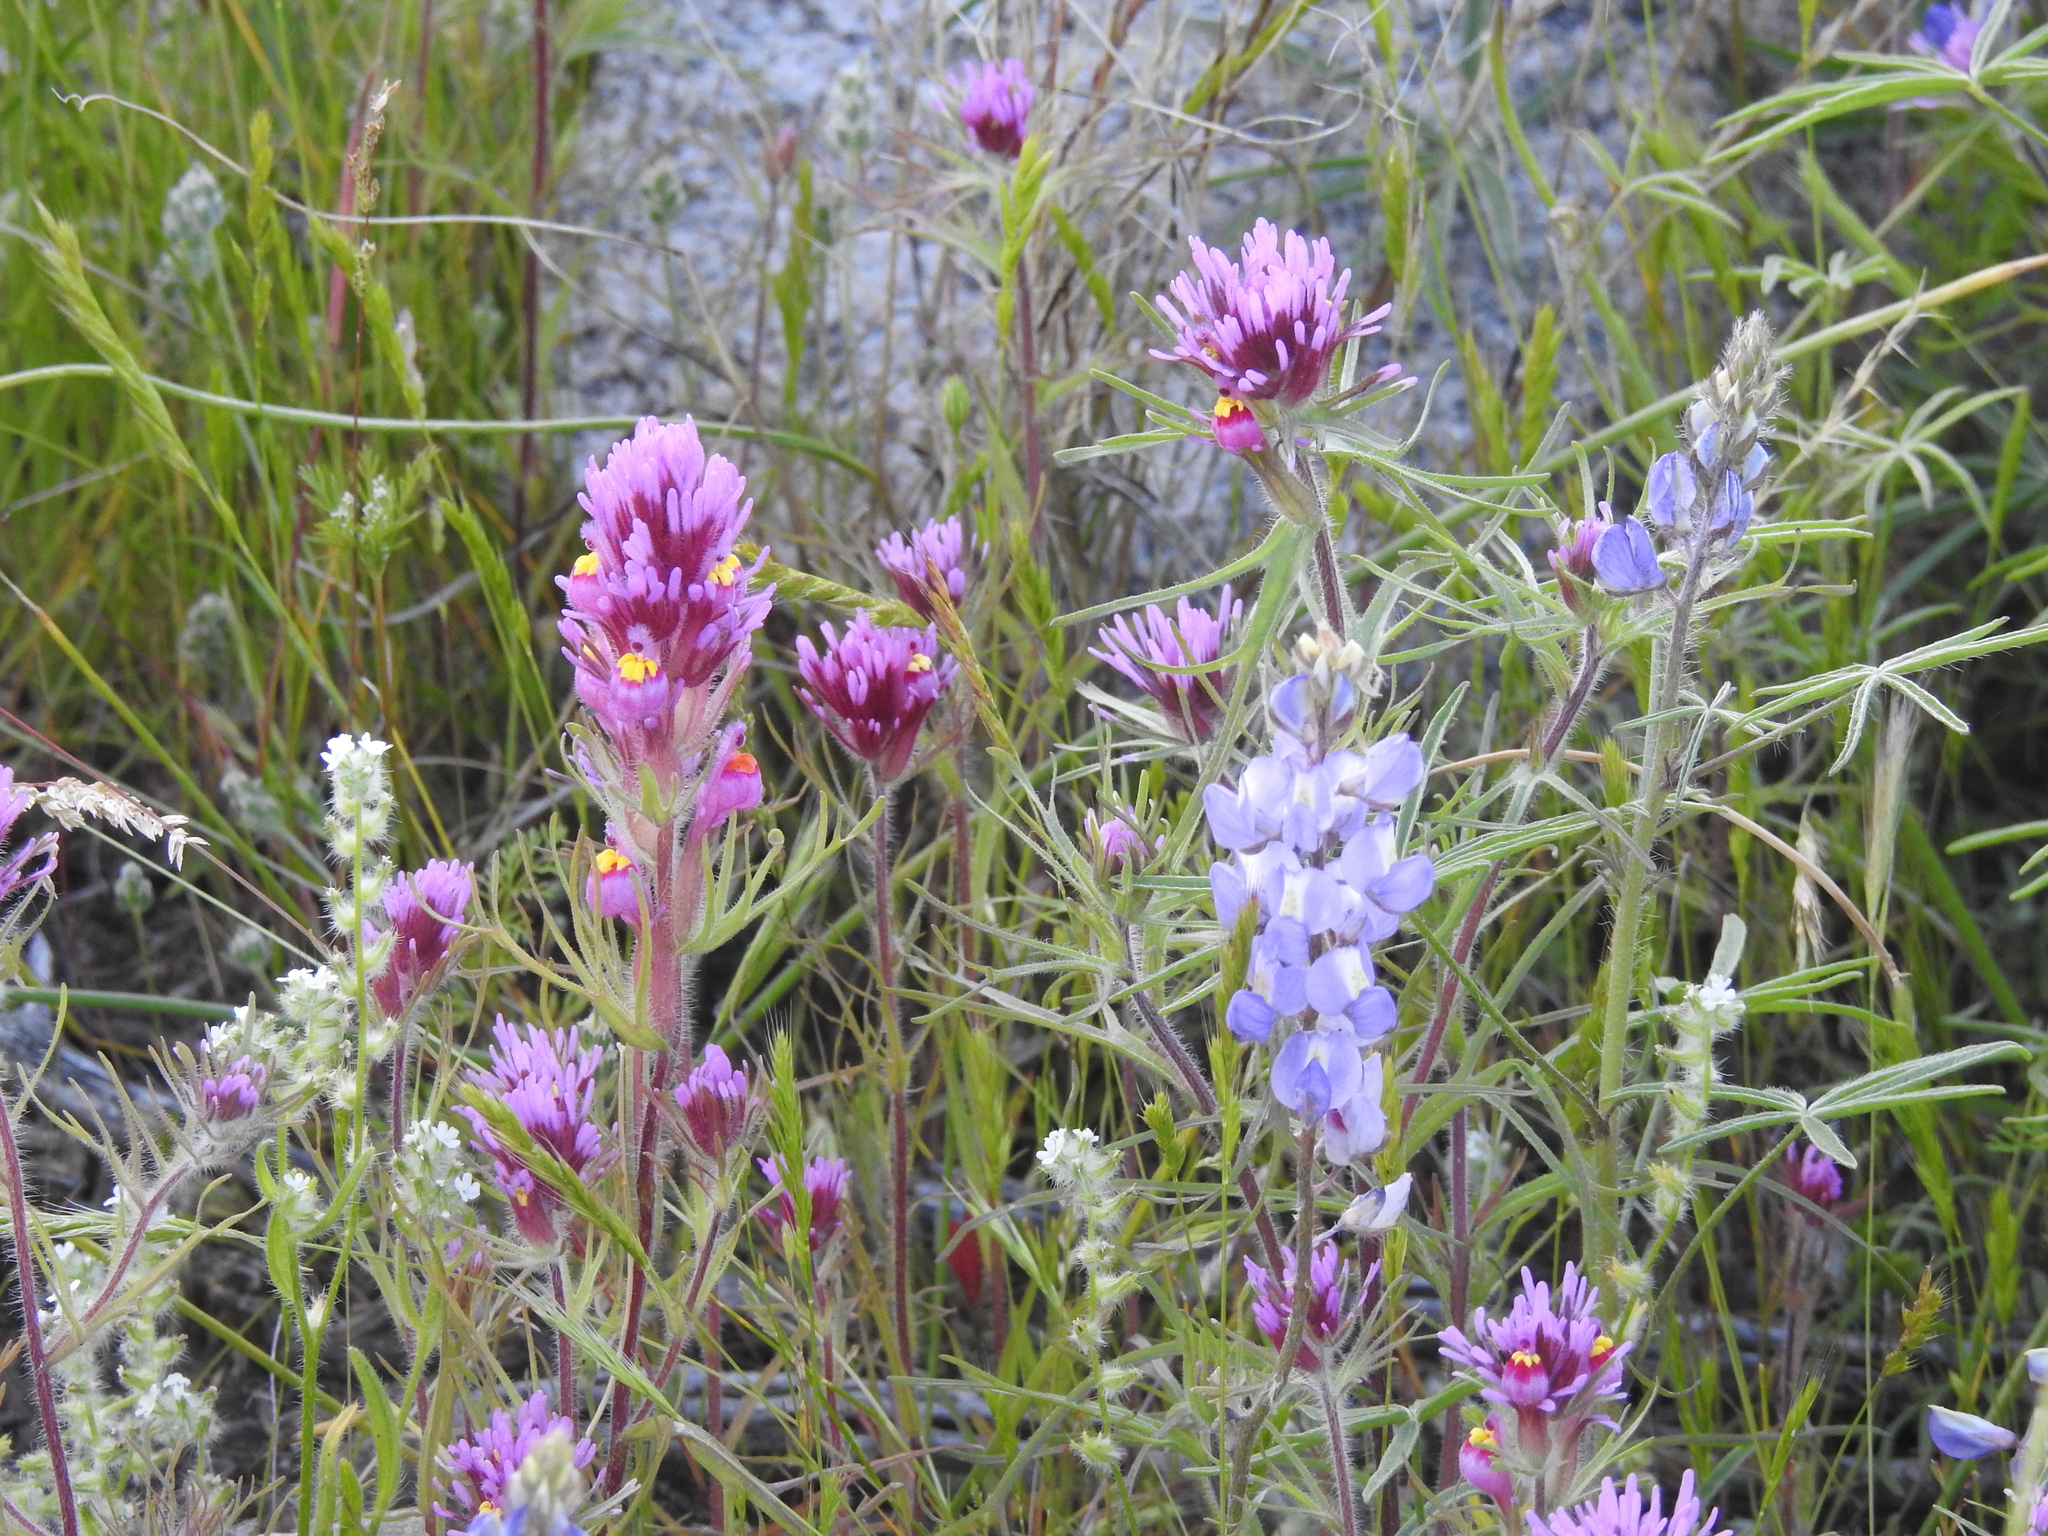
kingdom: Plantae
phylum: Tracheophyta
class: Magnoliopsida
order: Lamiales
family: Orobanchaceae
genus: Castilleja
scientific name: Castilleja exserta
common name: Purple owl-clover
